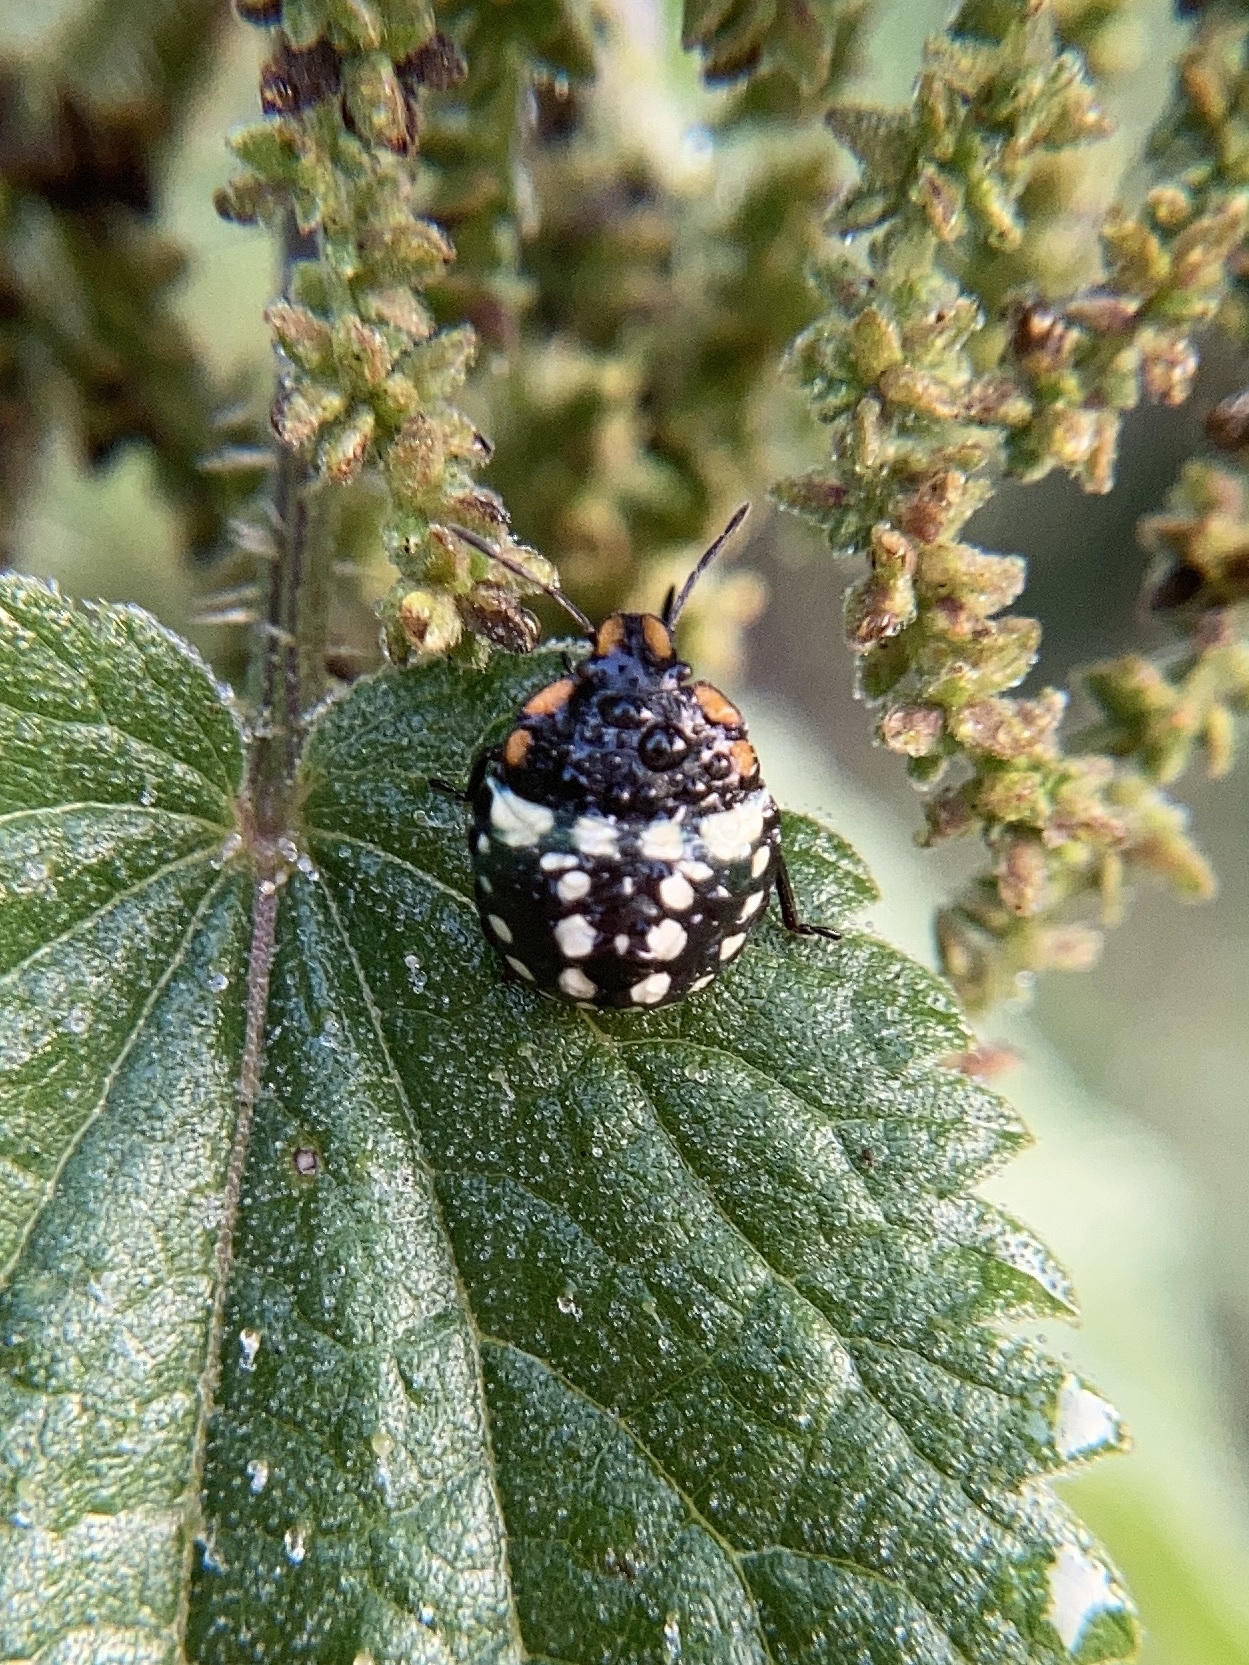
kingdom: Animalia
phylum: Arthropoda
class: Insecta
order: Hemiptera
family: Pentatomidae
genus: Nezara
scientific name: Nezara viridula
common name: Southern green stink bug
